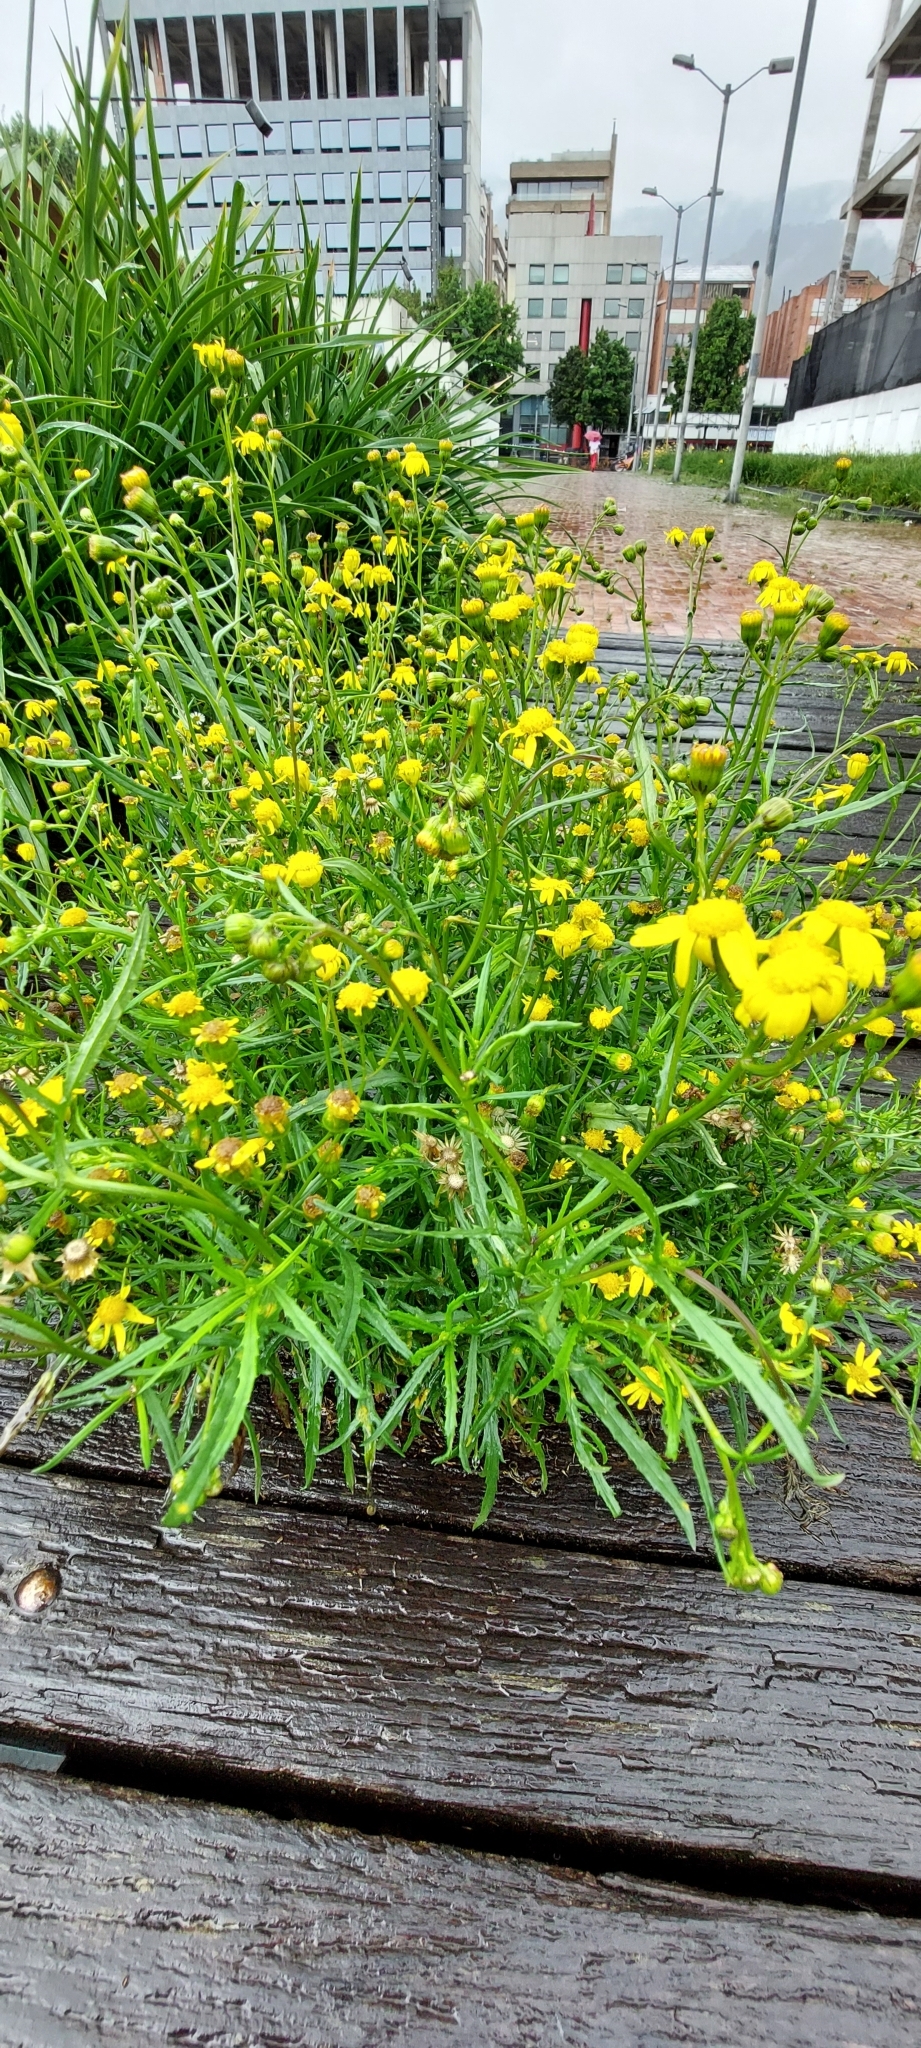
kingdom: Plantae
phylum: Tracheophyta
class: Magnoliopsida
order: Asterales
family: Asteraceae
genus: Senecio
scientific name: Senecio madagascariensis
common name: Madagascar ragwort
